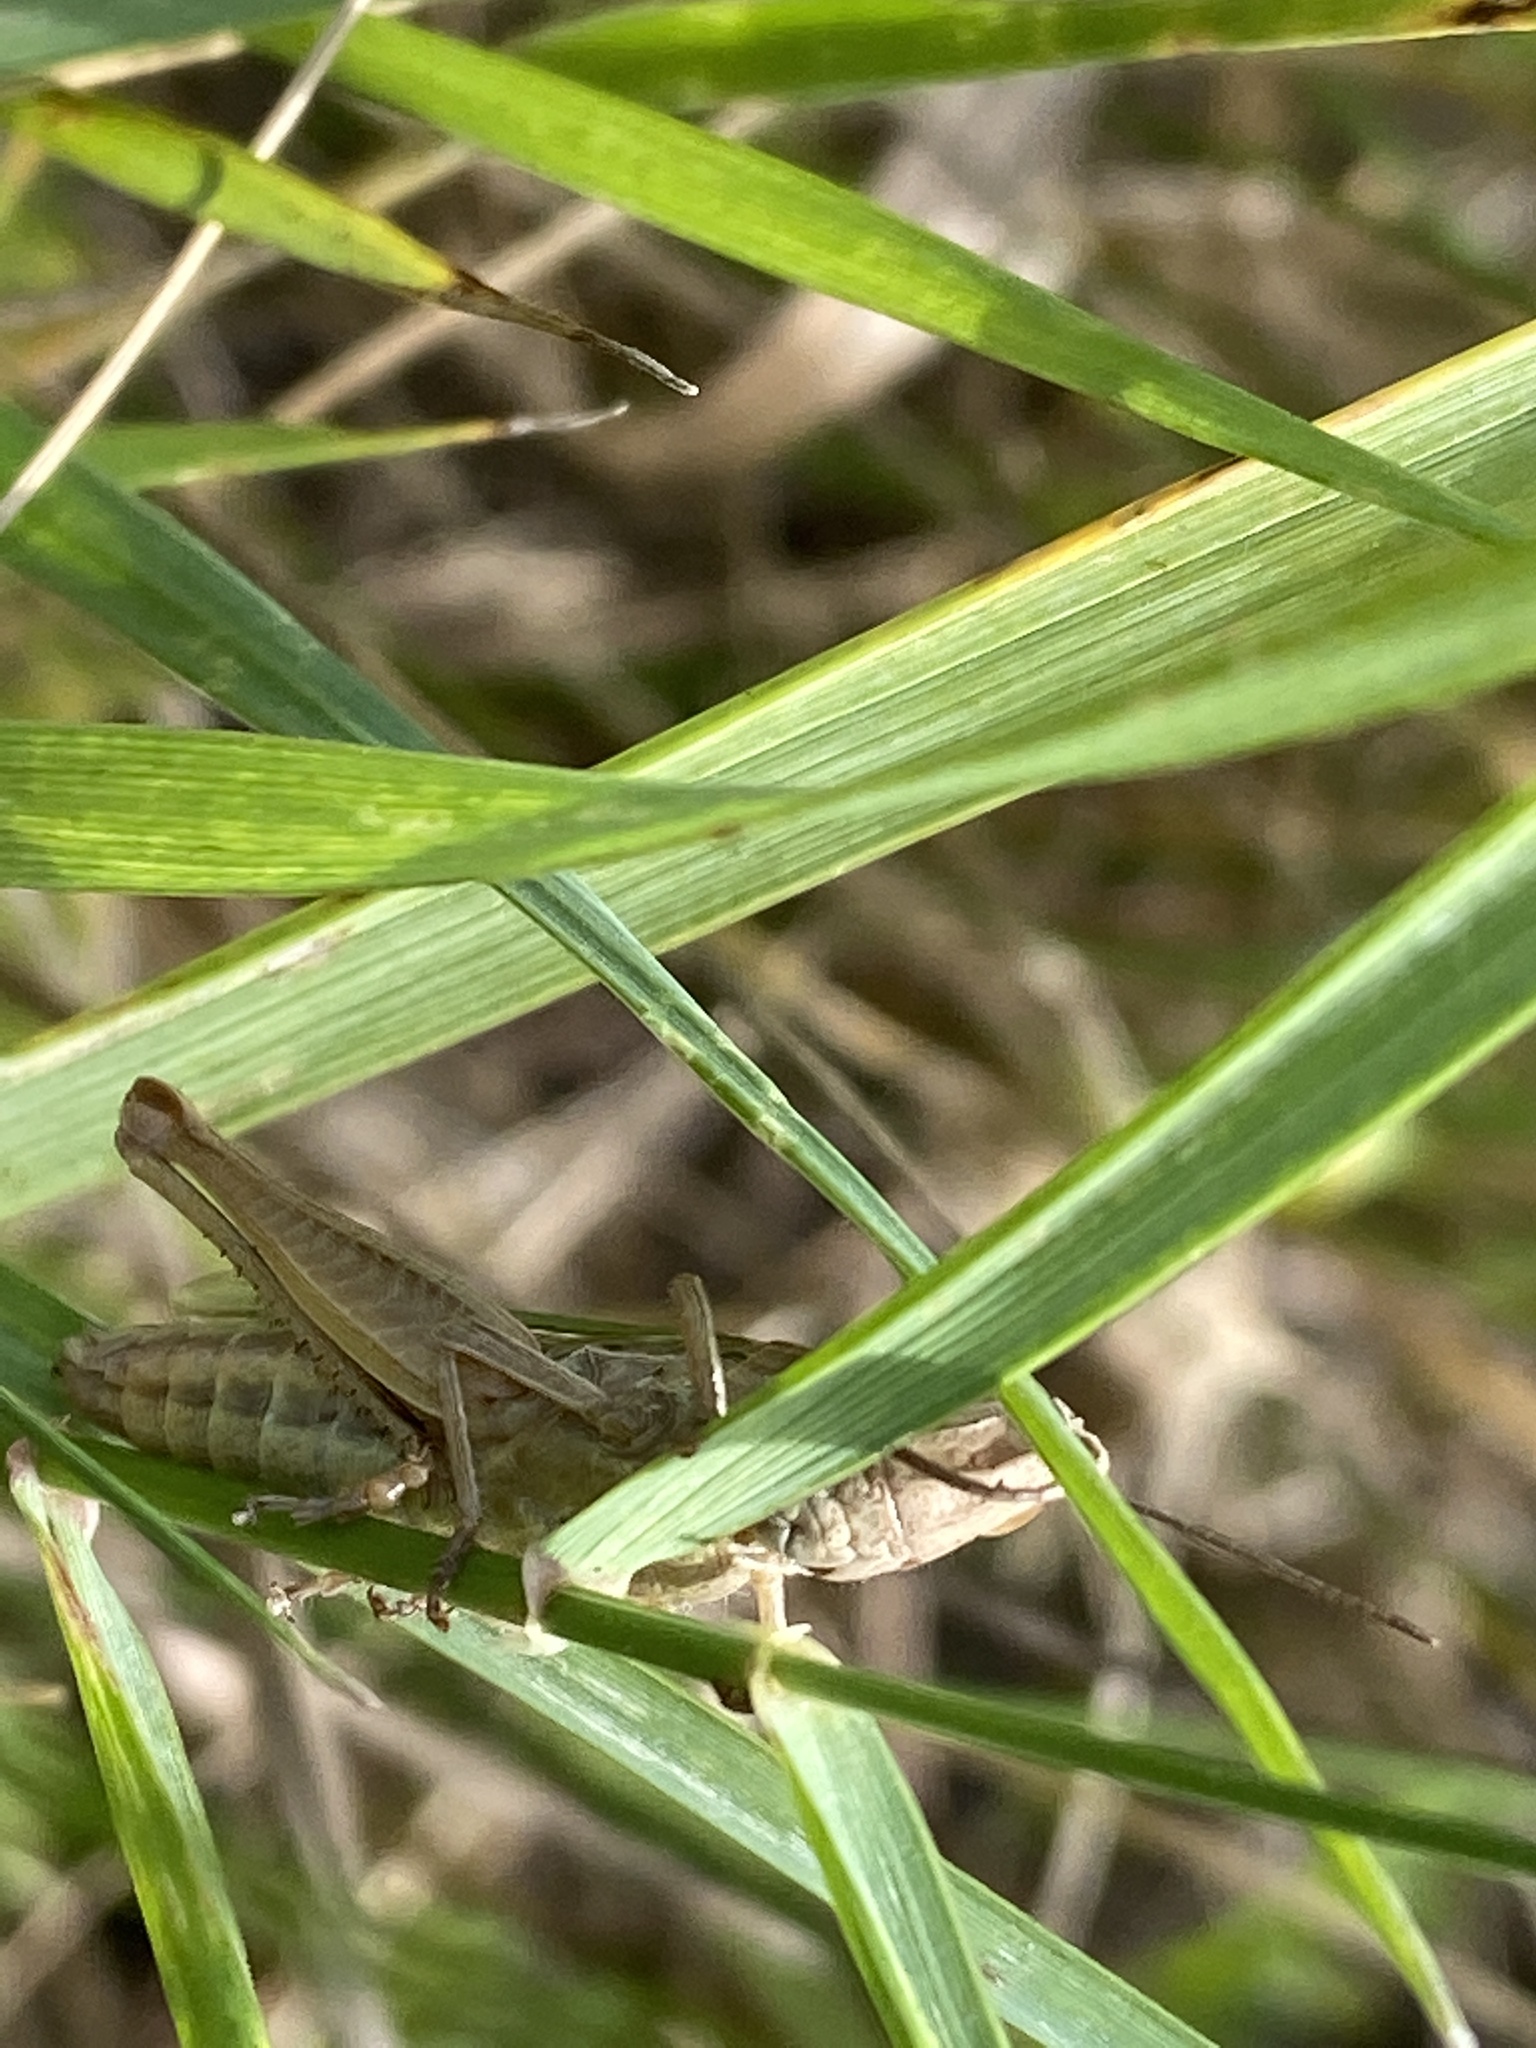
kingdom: Animalia
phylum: Arthropoda
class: Insecta
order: Orthoptera
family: Acrididae
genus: Chorthippus
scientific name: Chorthippus albomarginatus
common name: Lesser marsh grasshopper
